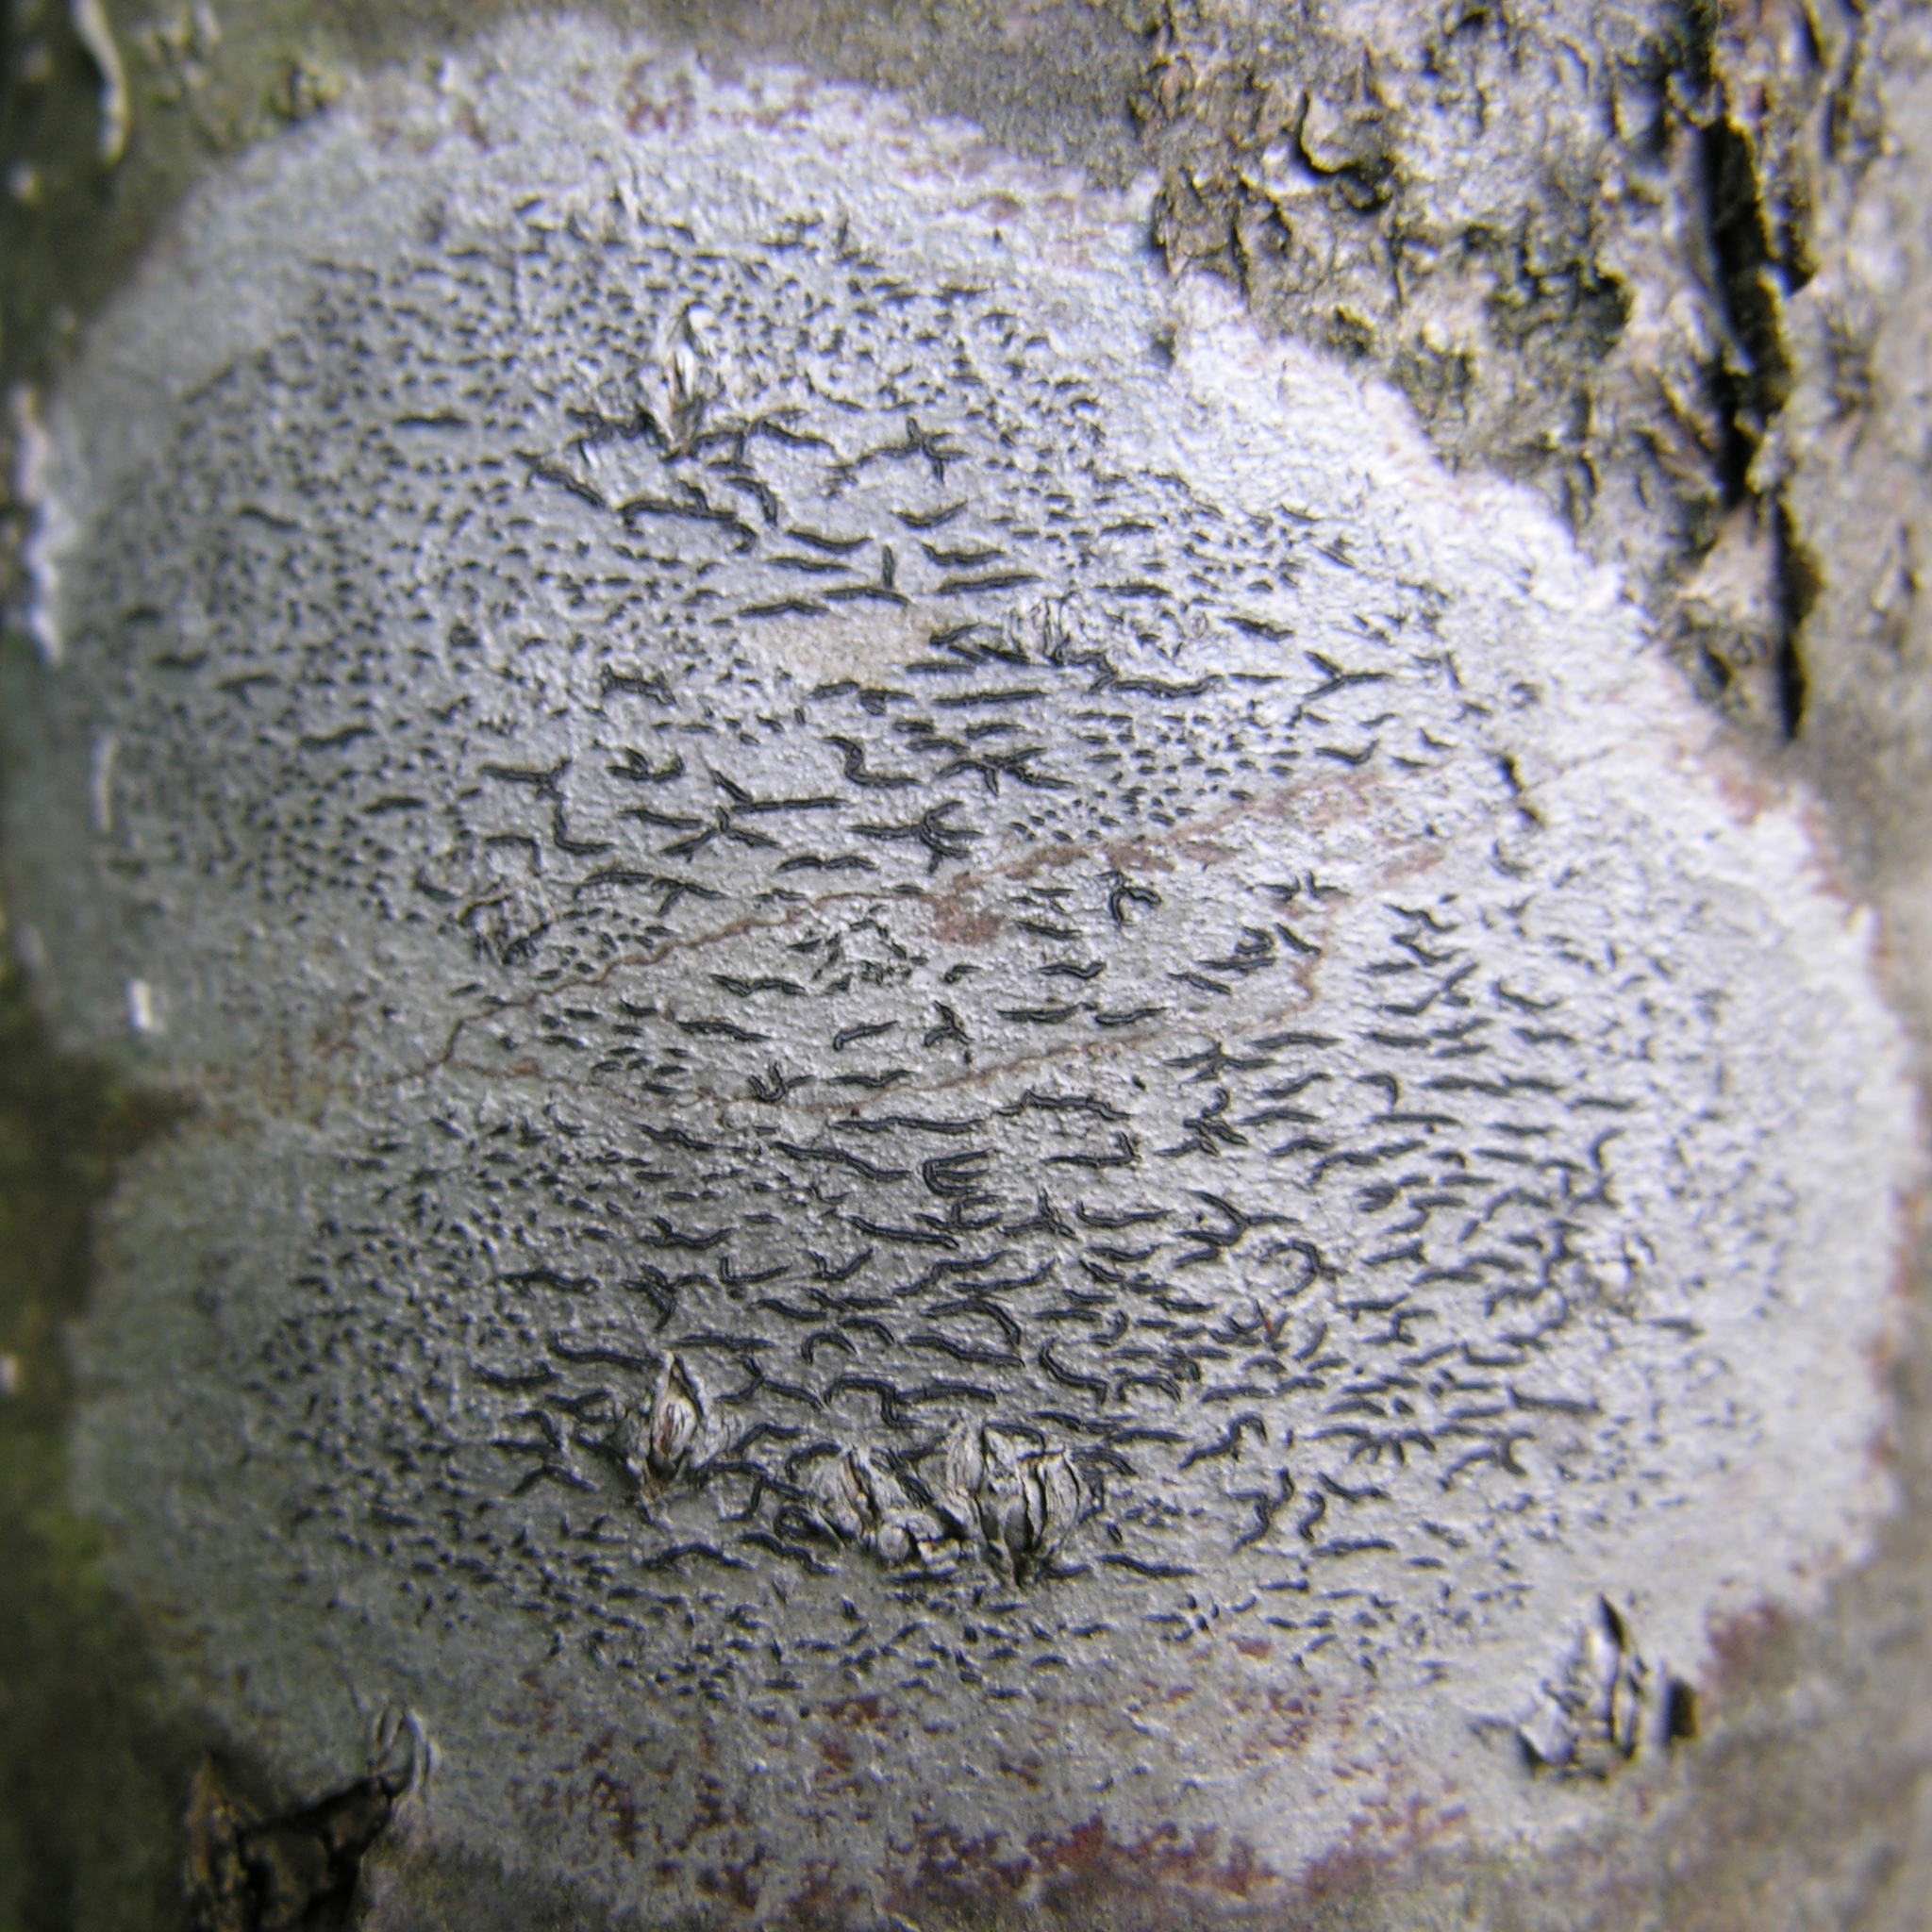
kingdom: Fungi
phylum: Ascomycota
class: Lecanoromycetes
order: Ostropales
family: Graphidaceae
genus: Graphis
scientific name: Graphis scripta
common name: Script lichen
